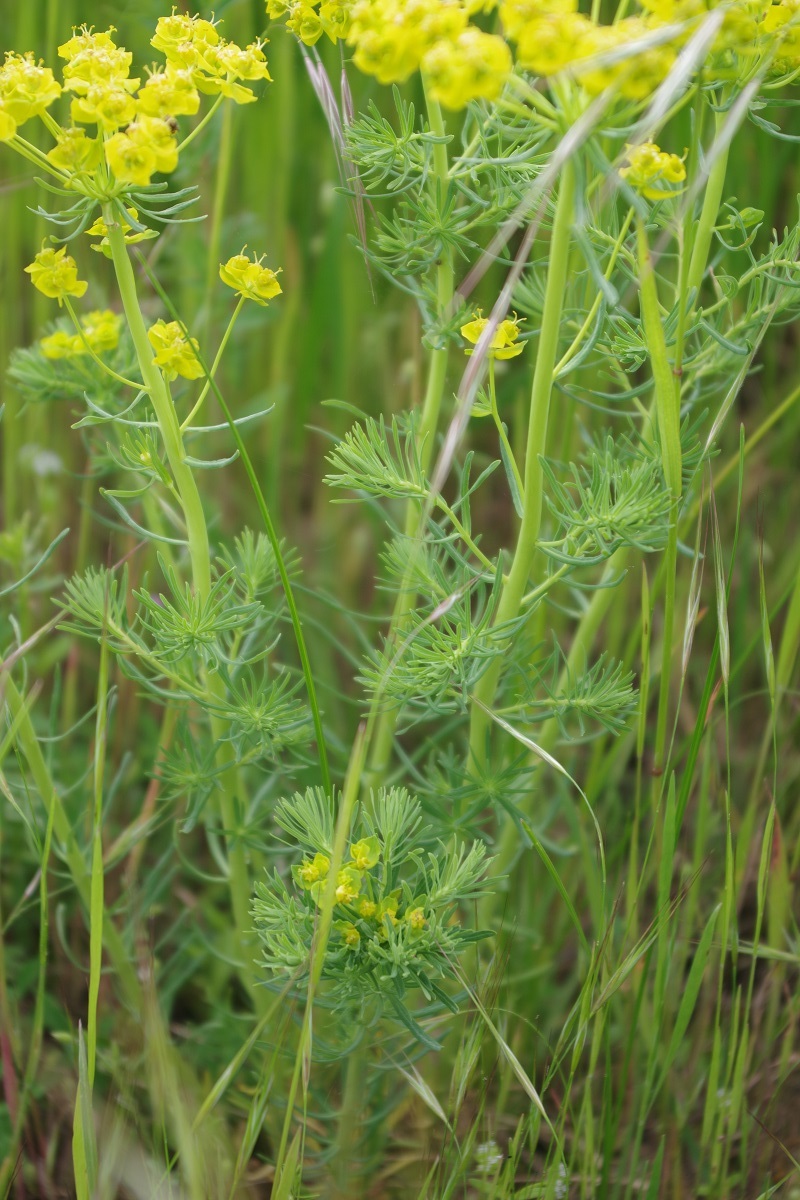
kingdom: Plantae
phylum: Tracheophyta
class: Magnoliopsida
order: Malpighiales
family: Euphorbiaceae
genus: Euphorbia
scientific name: Euphorbia cyparissias
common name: Cypress spurge
